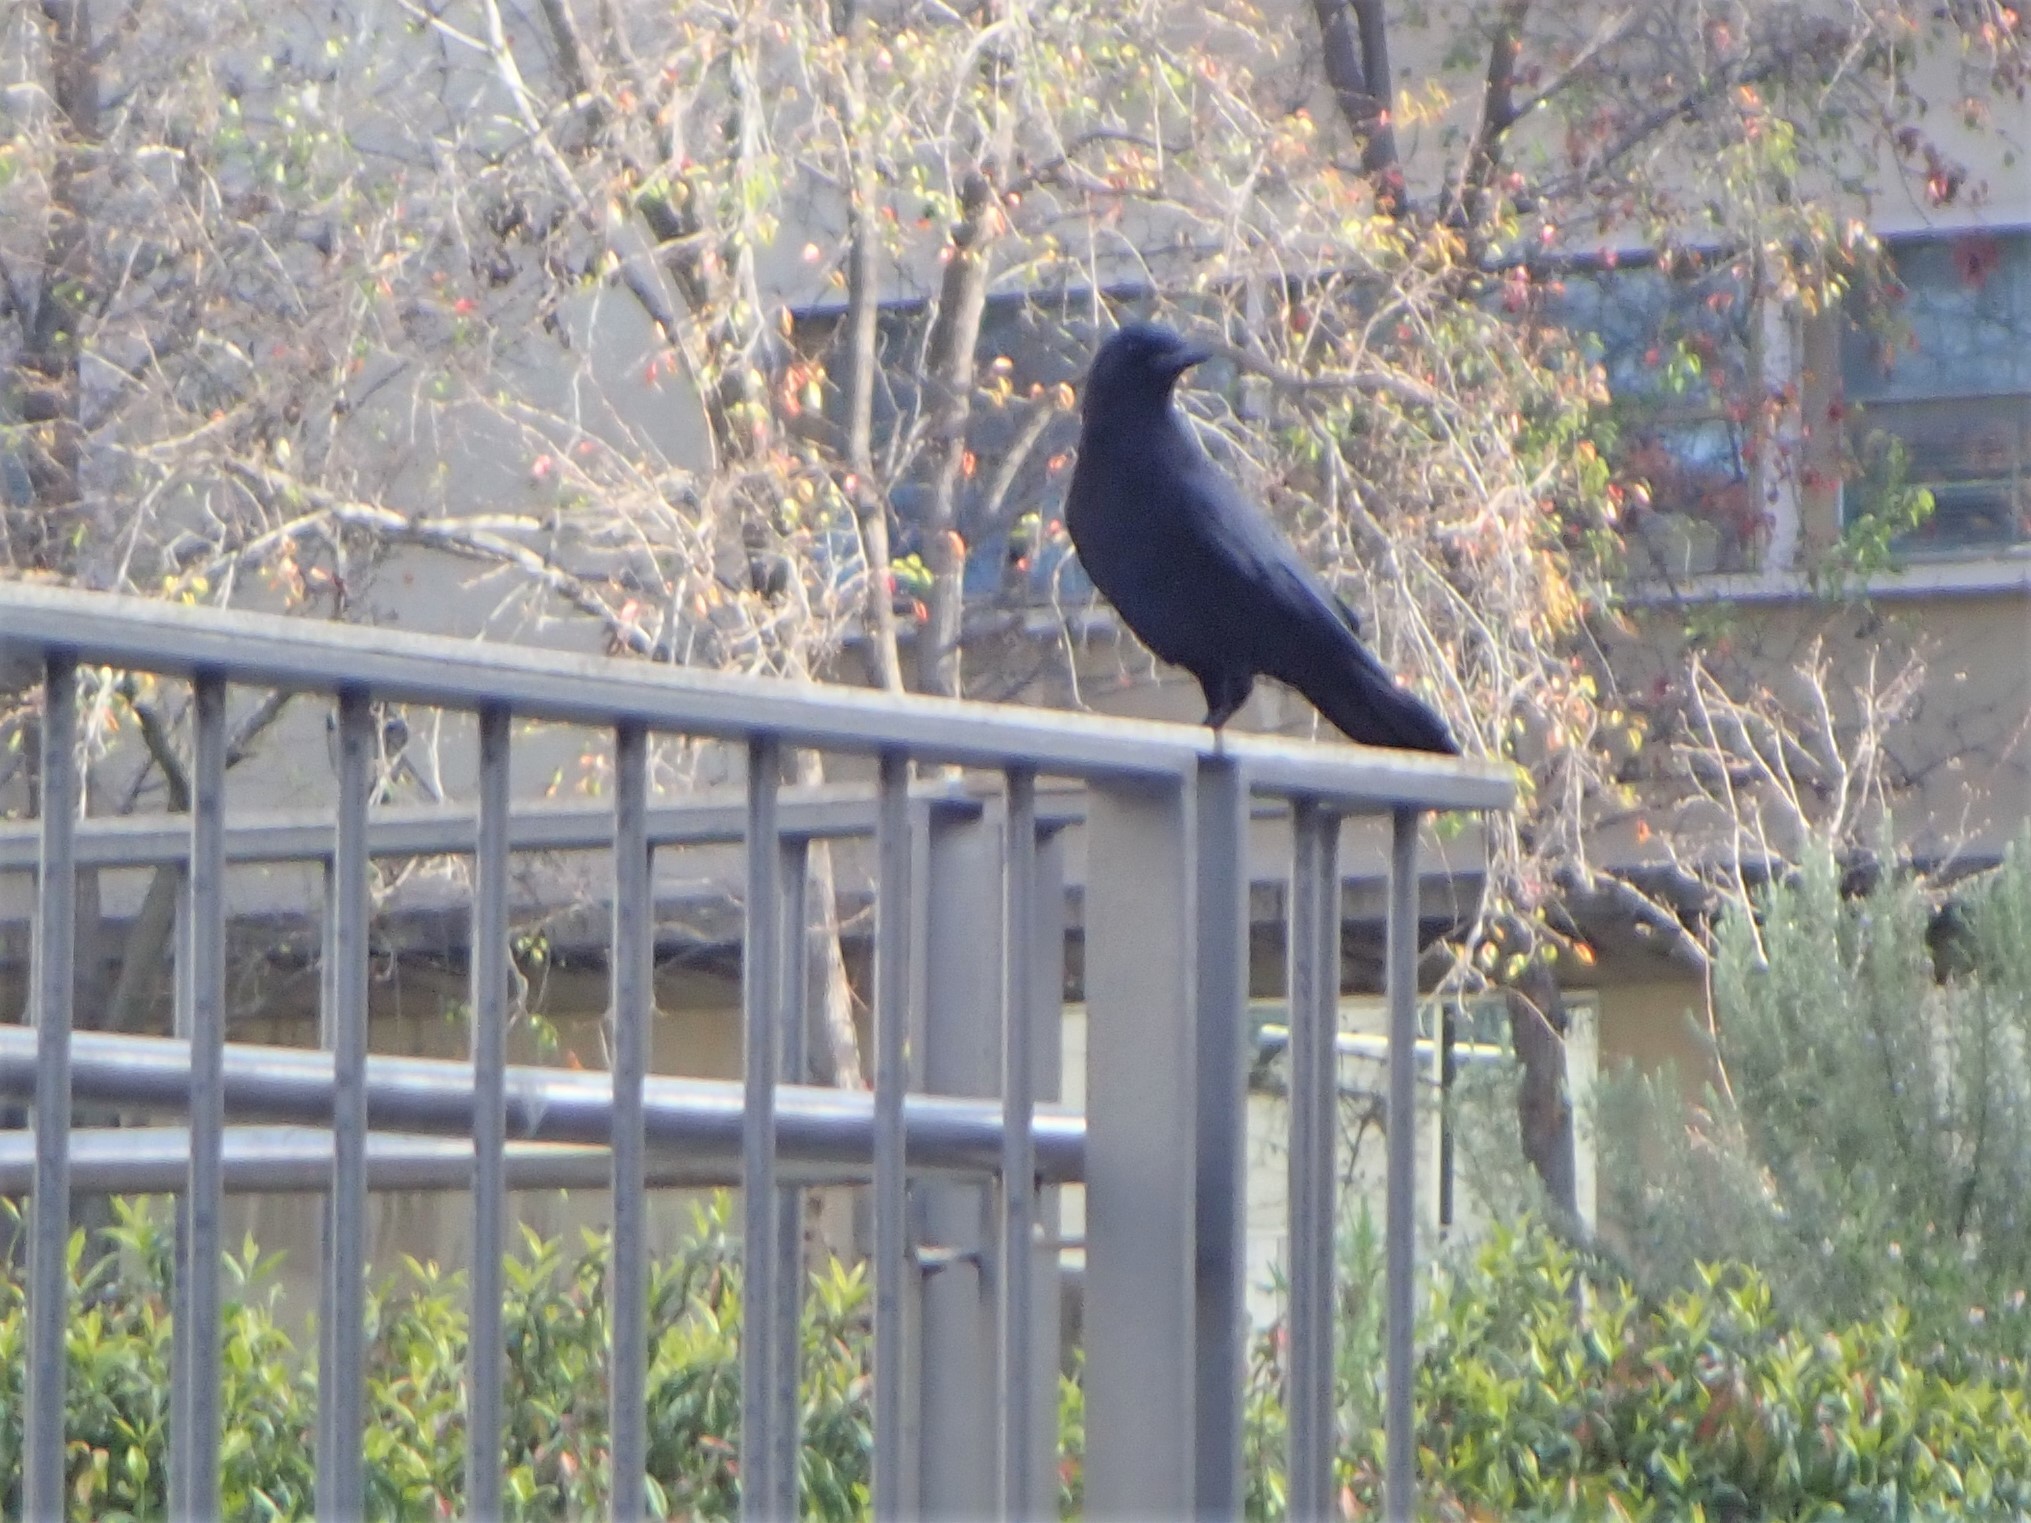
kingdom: Animalia
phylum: Chordata
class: Aves
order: Passeriformes
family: Corvidae
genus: Corvus
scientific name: Corvus brachyrhynchos
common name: American crow
